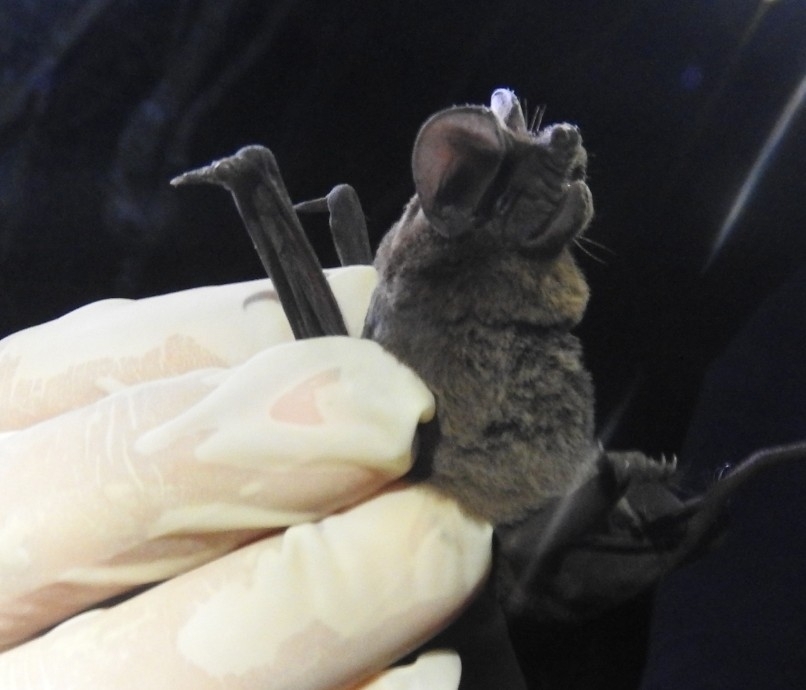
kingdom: Animalia
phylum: Chordata
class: Mammalia
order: Chiroptera
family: Molossidae
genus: Nyctinomops
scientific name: Nyctinomops laticaudatus
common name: Broad-eared free-tailed bat
